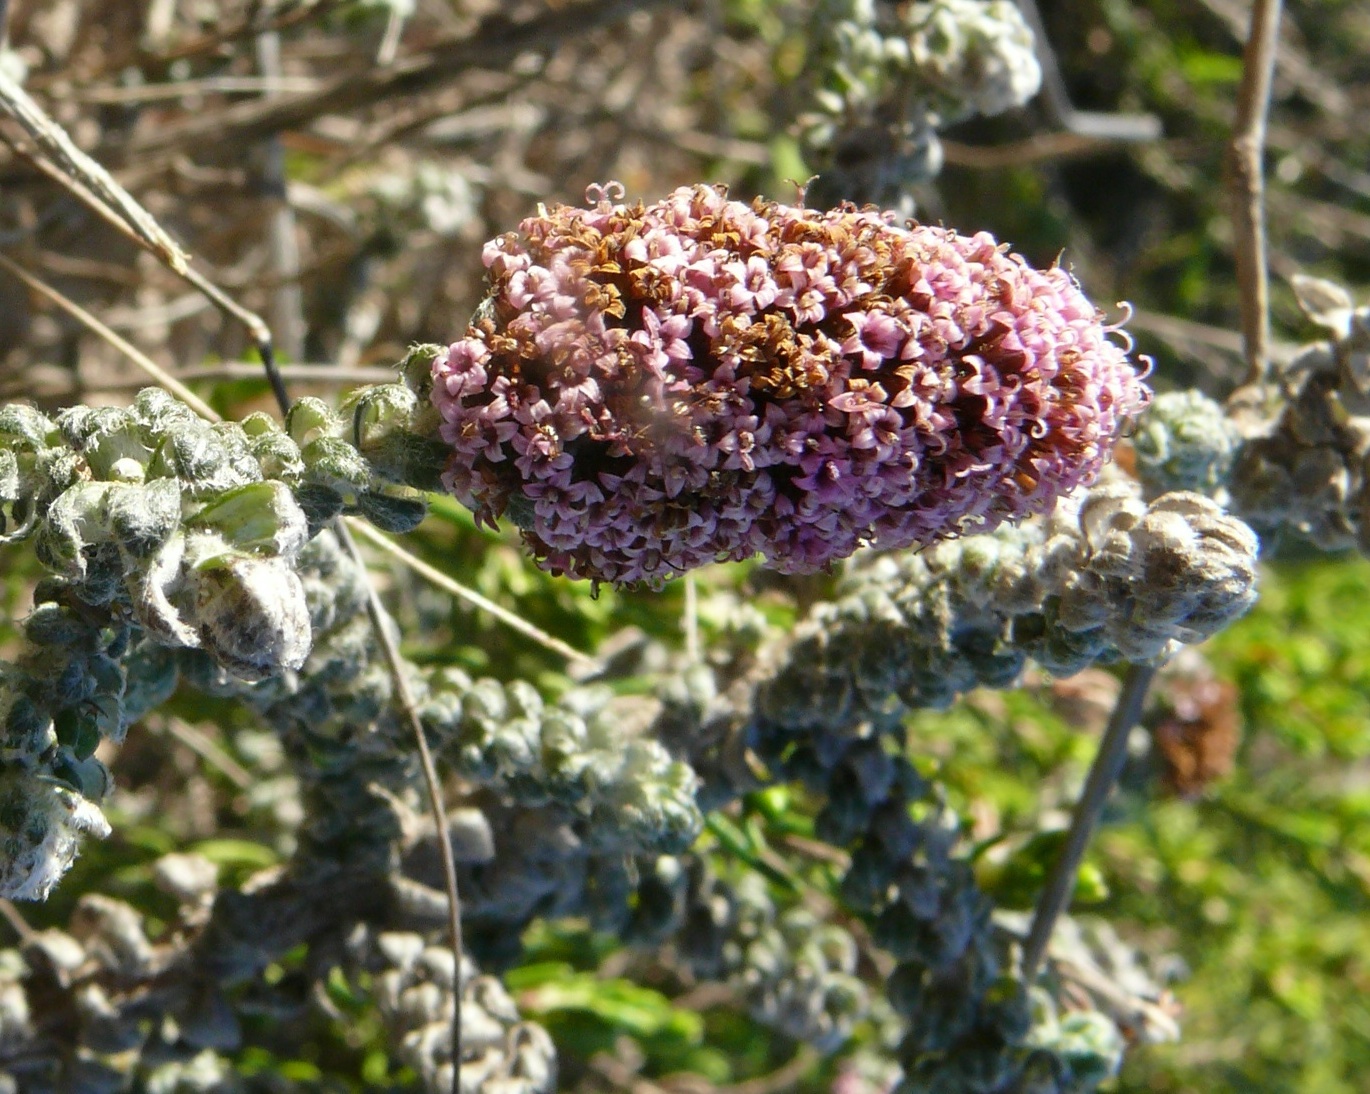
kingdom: Plantae
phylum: Tracheophyta
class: Magnoliopsida
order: Asterales
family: Asteraceae
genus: Stoebe
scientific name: Stoebe muirii
